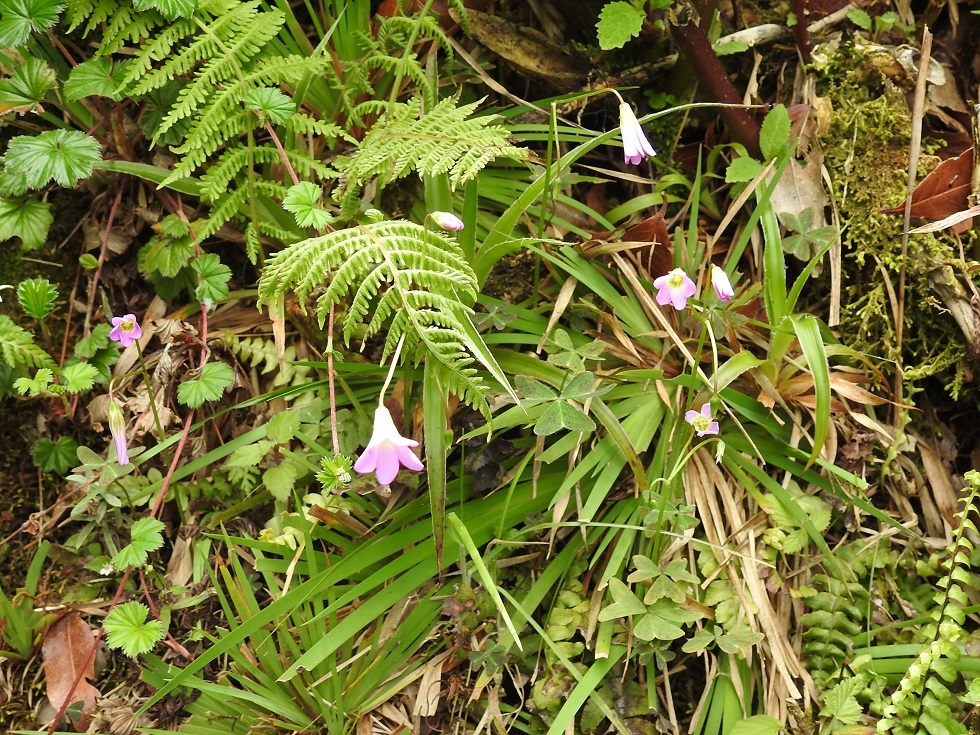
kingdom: Plantae
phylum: Tracheophyta
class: Magnoliopsida
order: Oxalidales
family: Oxalidaceae
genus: Oxalis
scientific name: Oxalis alpina
